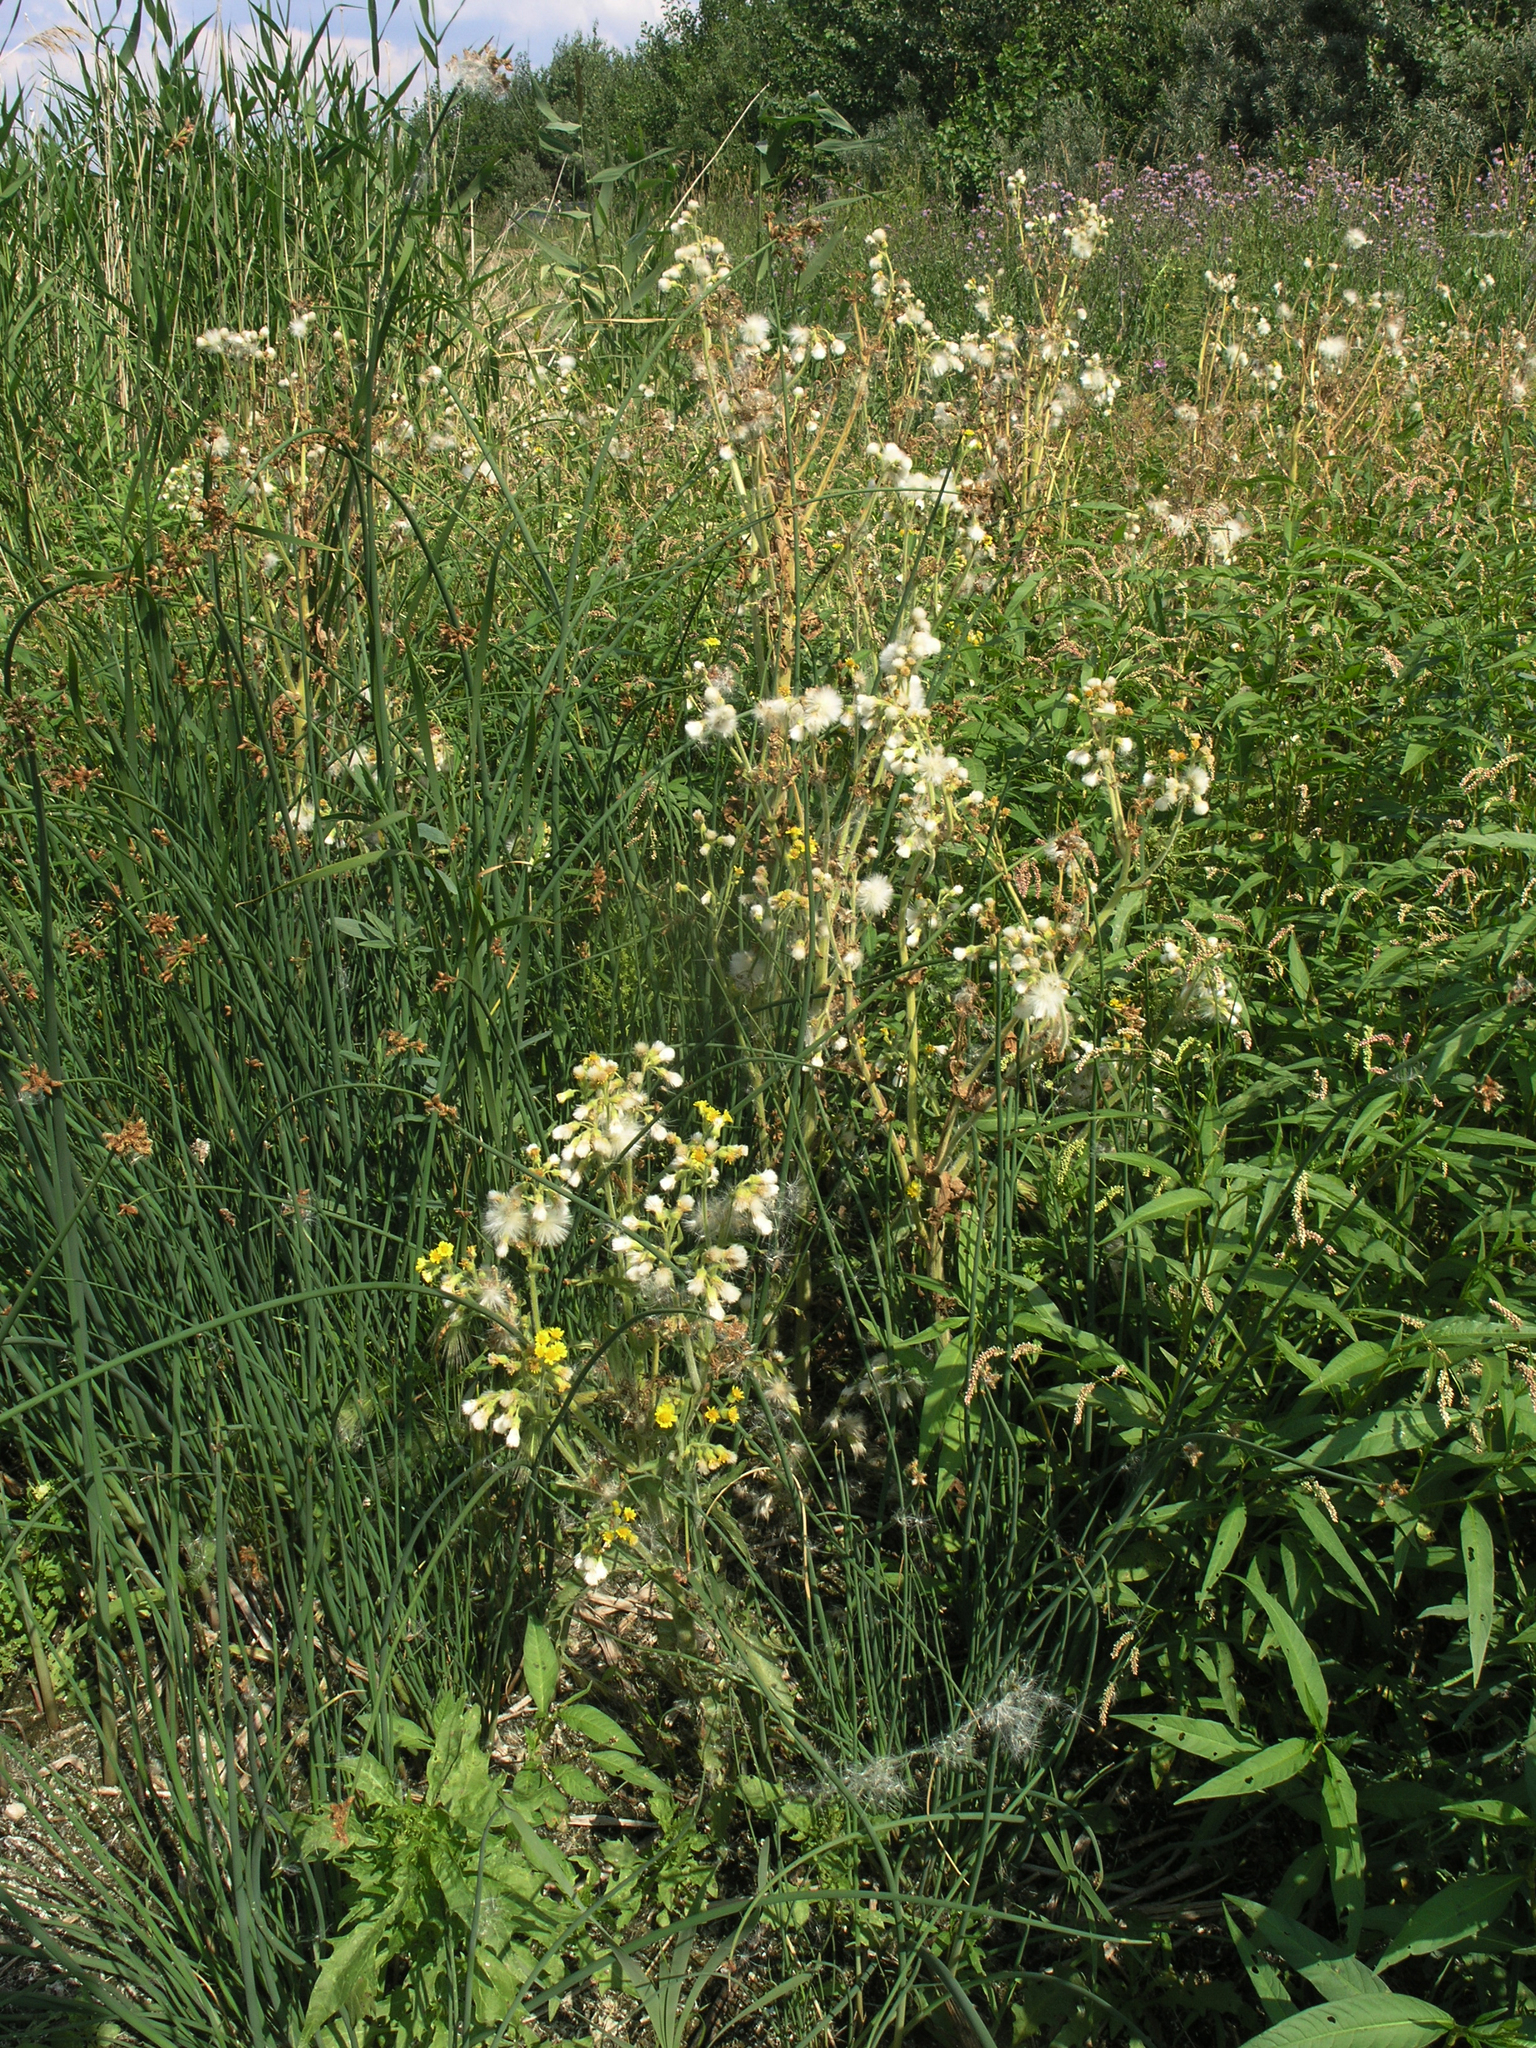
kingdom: Plantae
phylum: Tracheophyta
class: Magnoliopsida
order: Asterales
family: Asteraceae
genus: Tephroseris
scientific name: Tephroseris palustris
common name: Marsh fleawort
